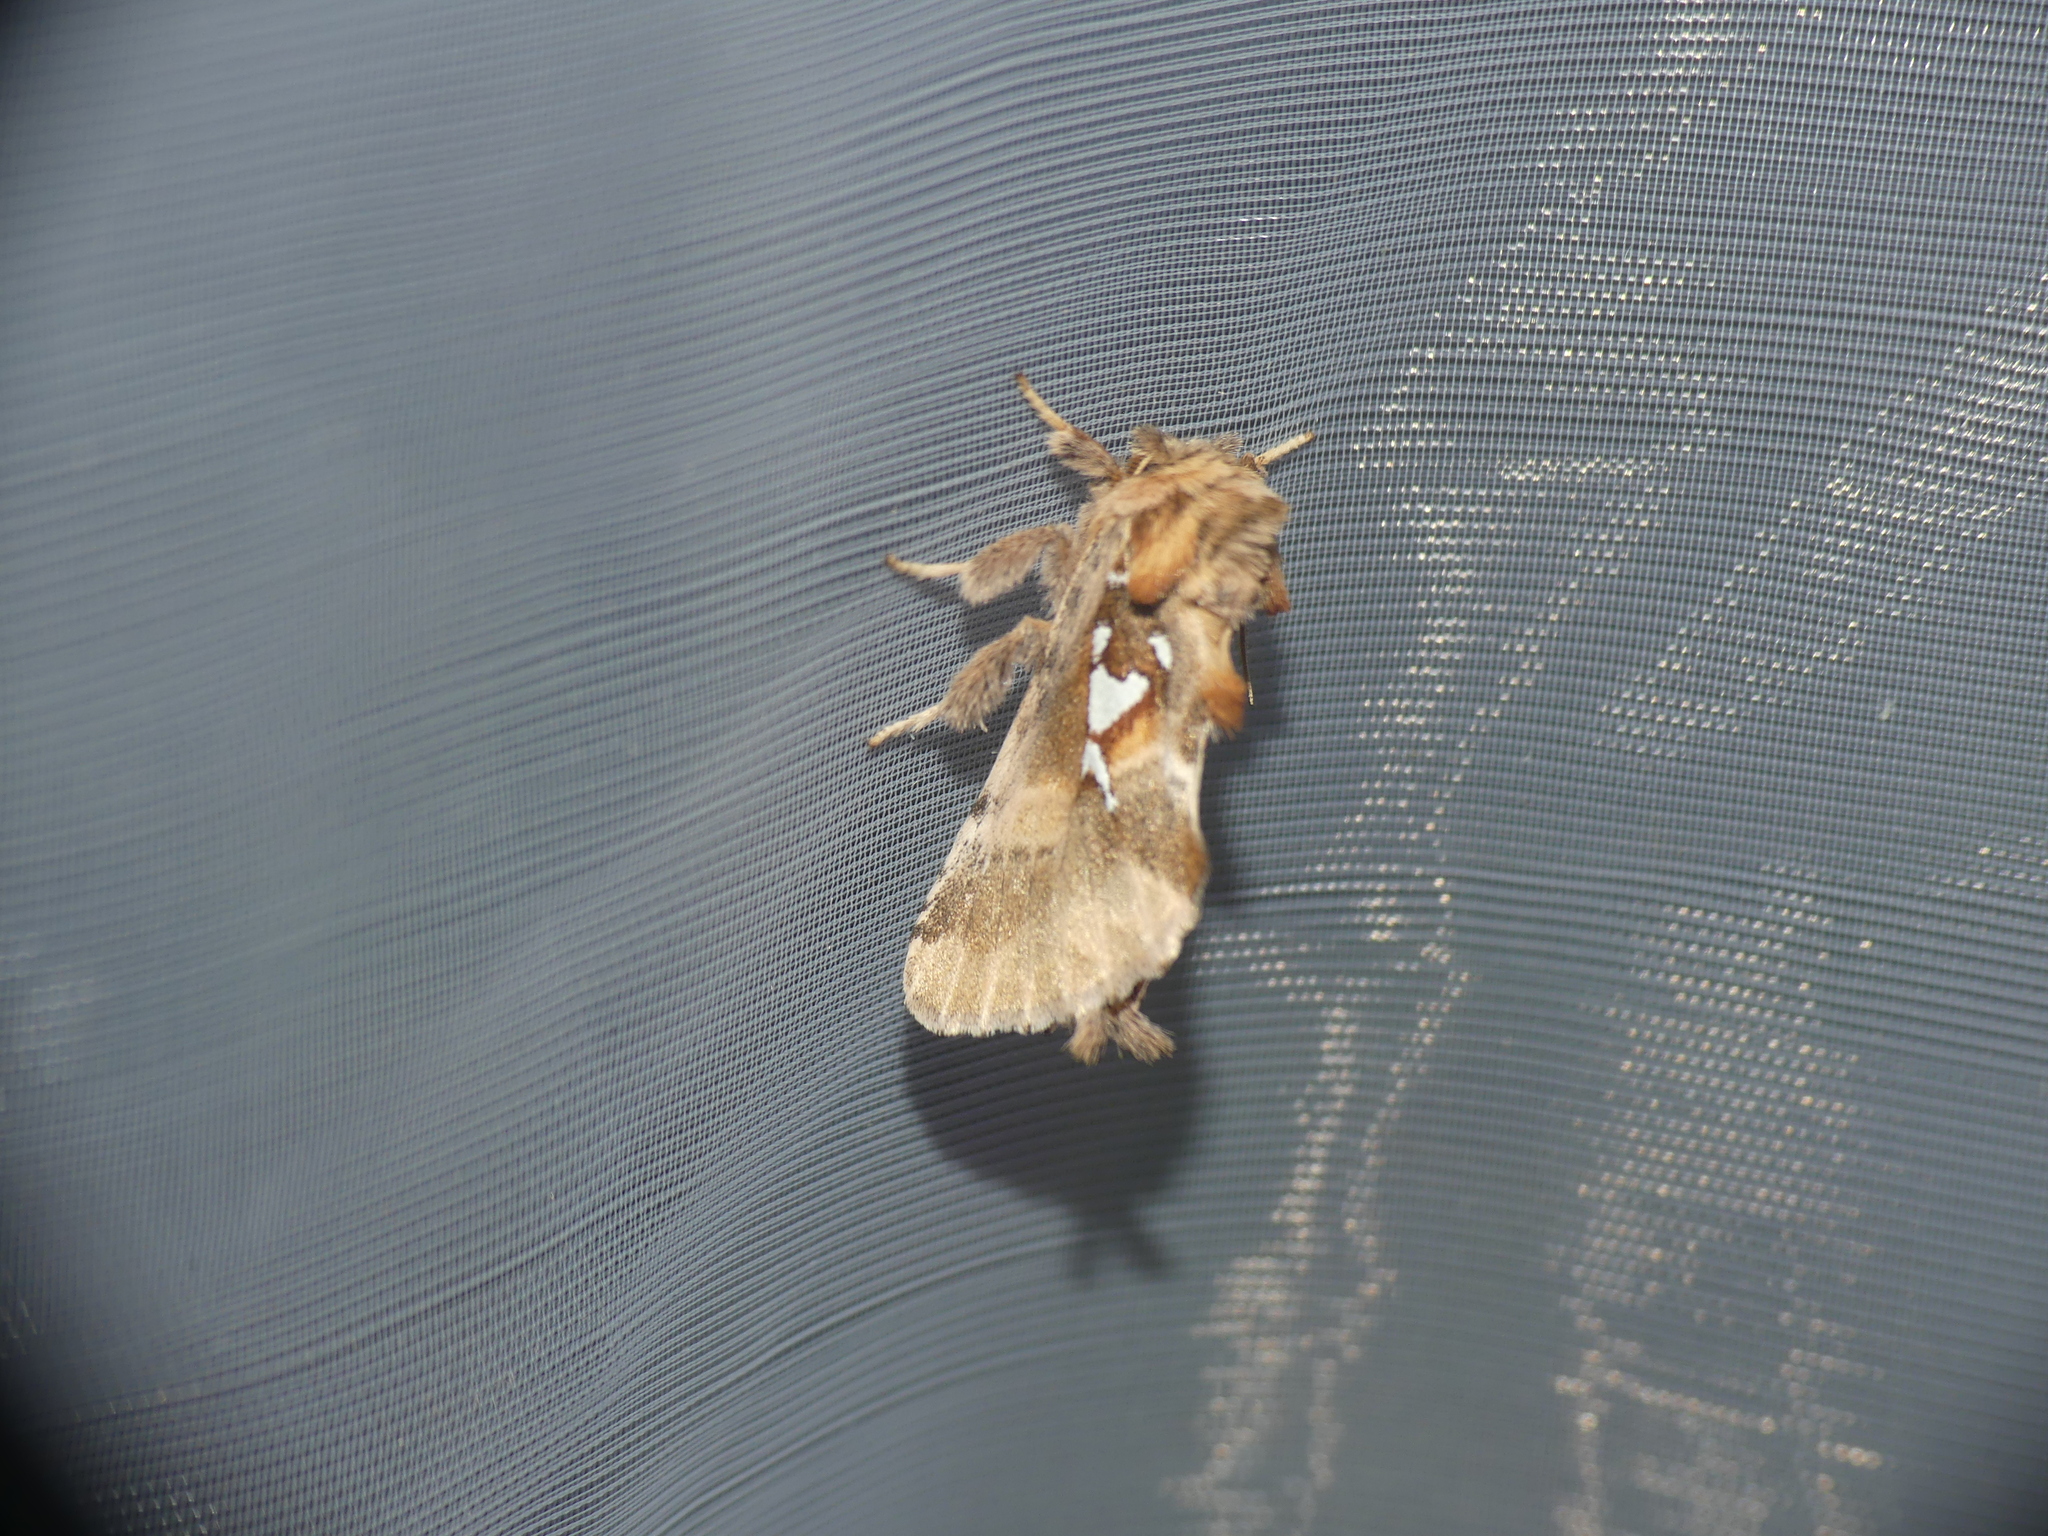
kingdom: Animalia
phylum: Arthropoda
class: Insecta
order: Lepidoptera
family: Notodontidae
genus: Spatalia
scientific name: Spatalia argentina
